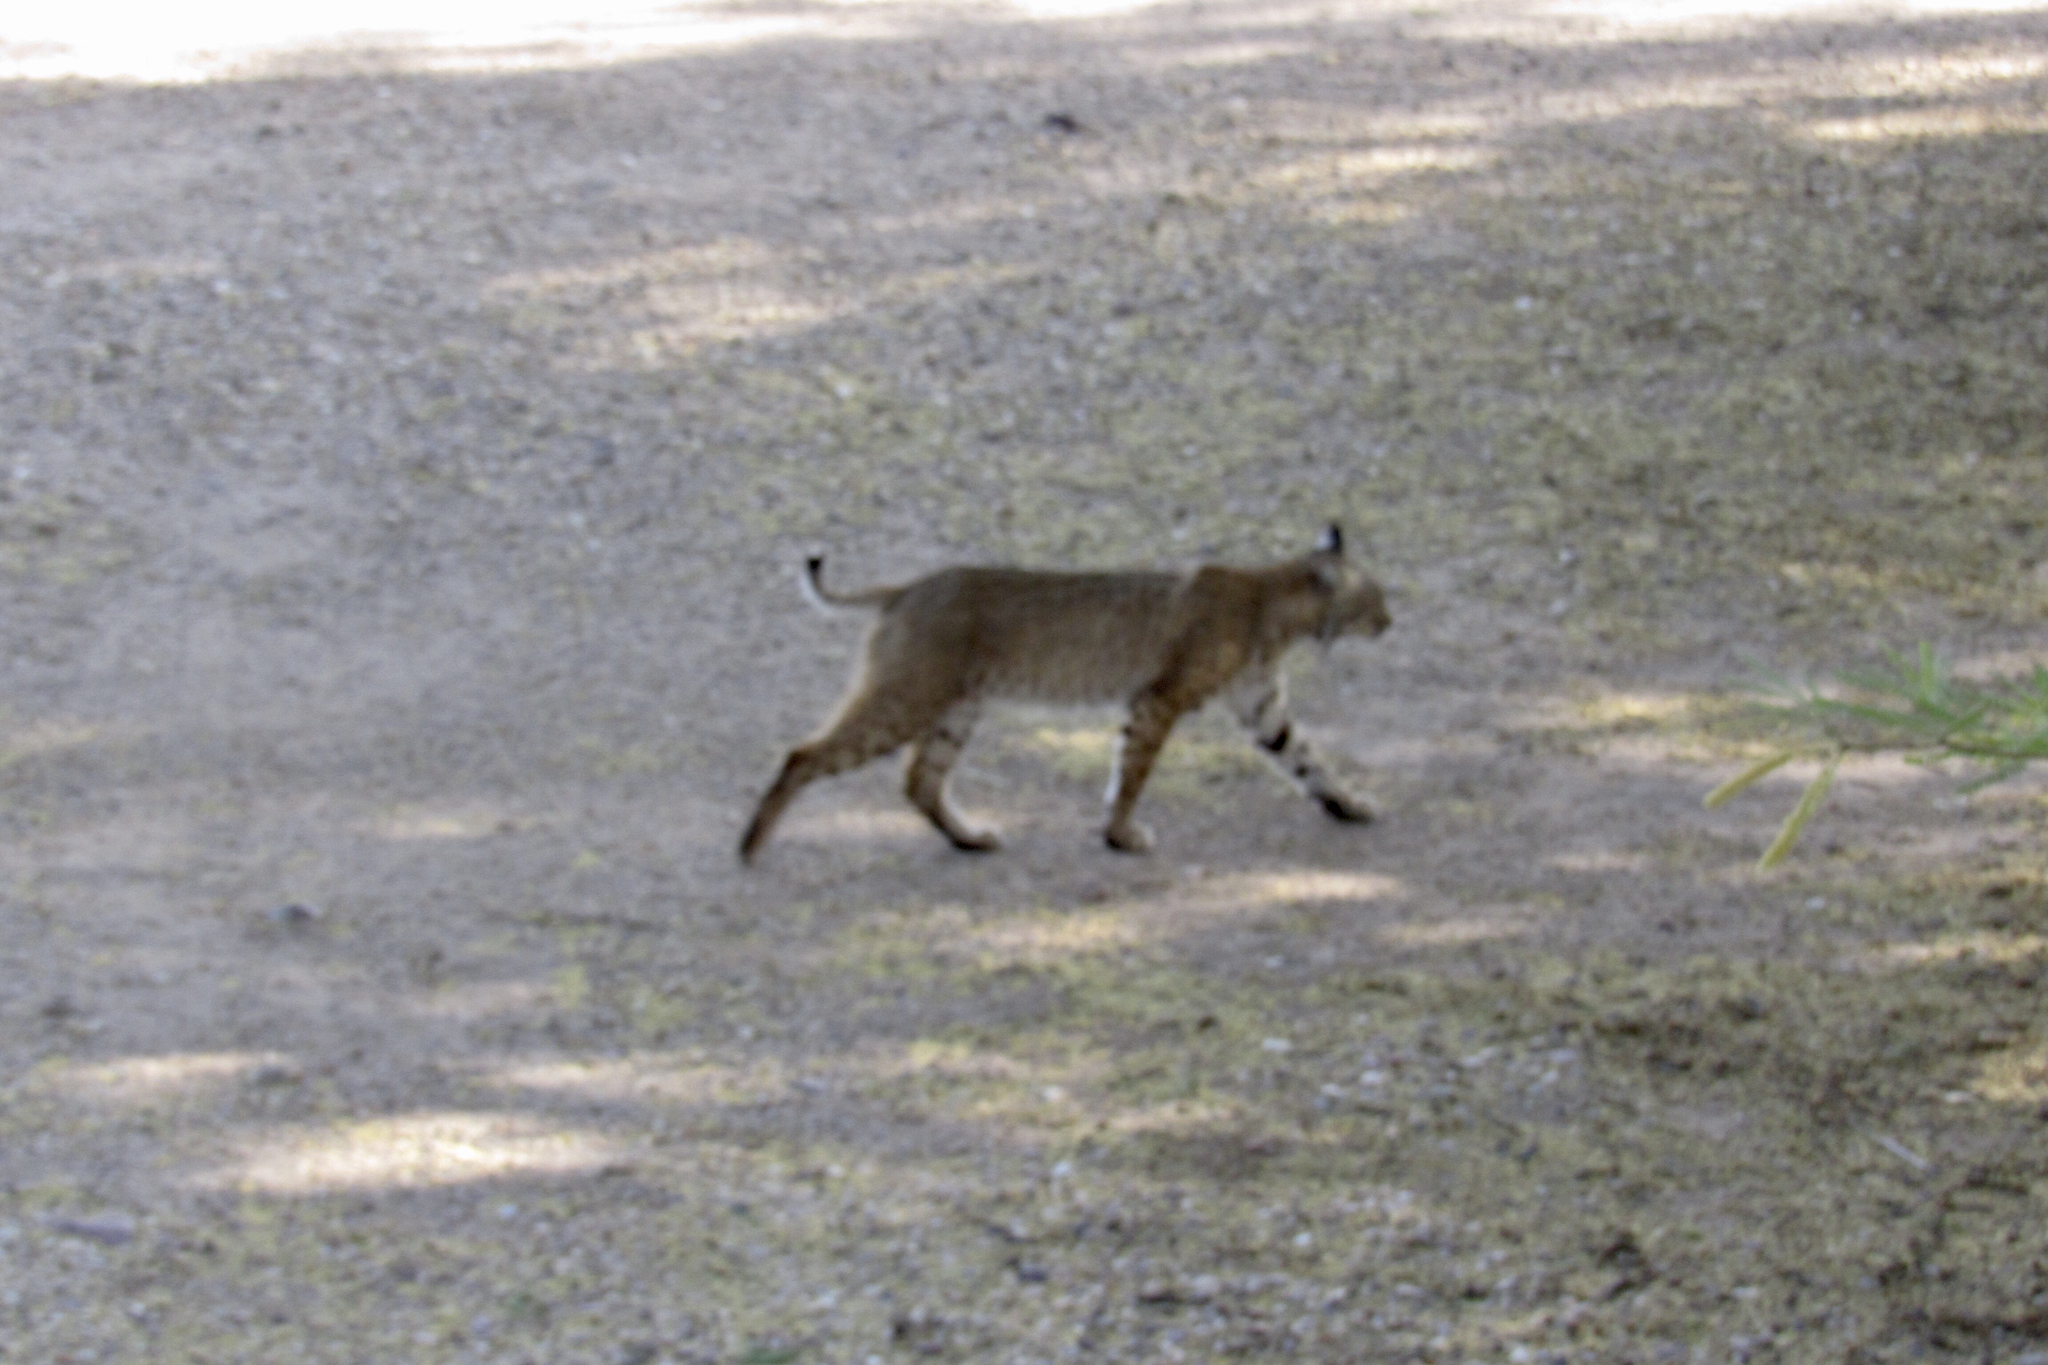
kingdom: Animalia
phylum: Chordata
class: Mammalia
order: Carnivora
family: Felidae
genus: Lynx
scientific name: Lynx rufus
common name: Bobcat
